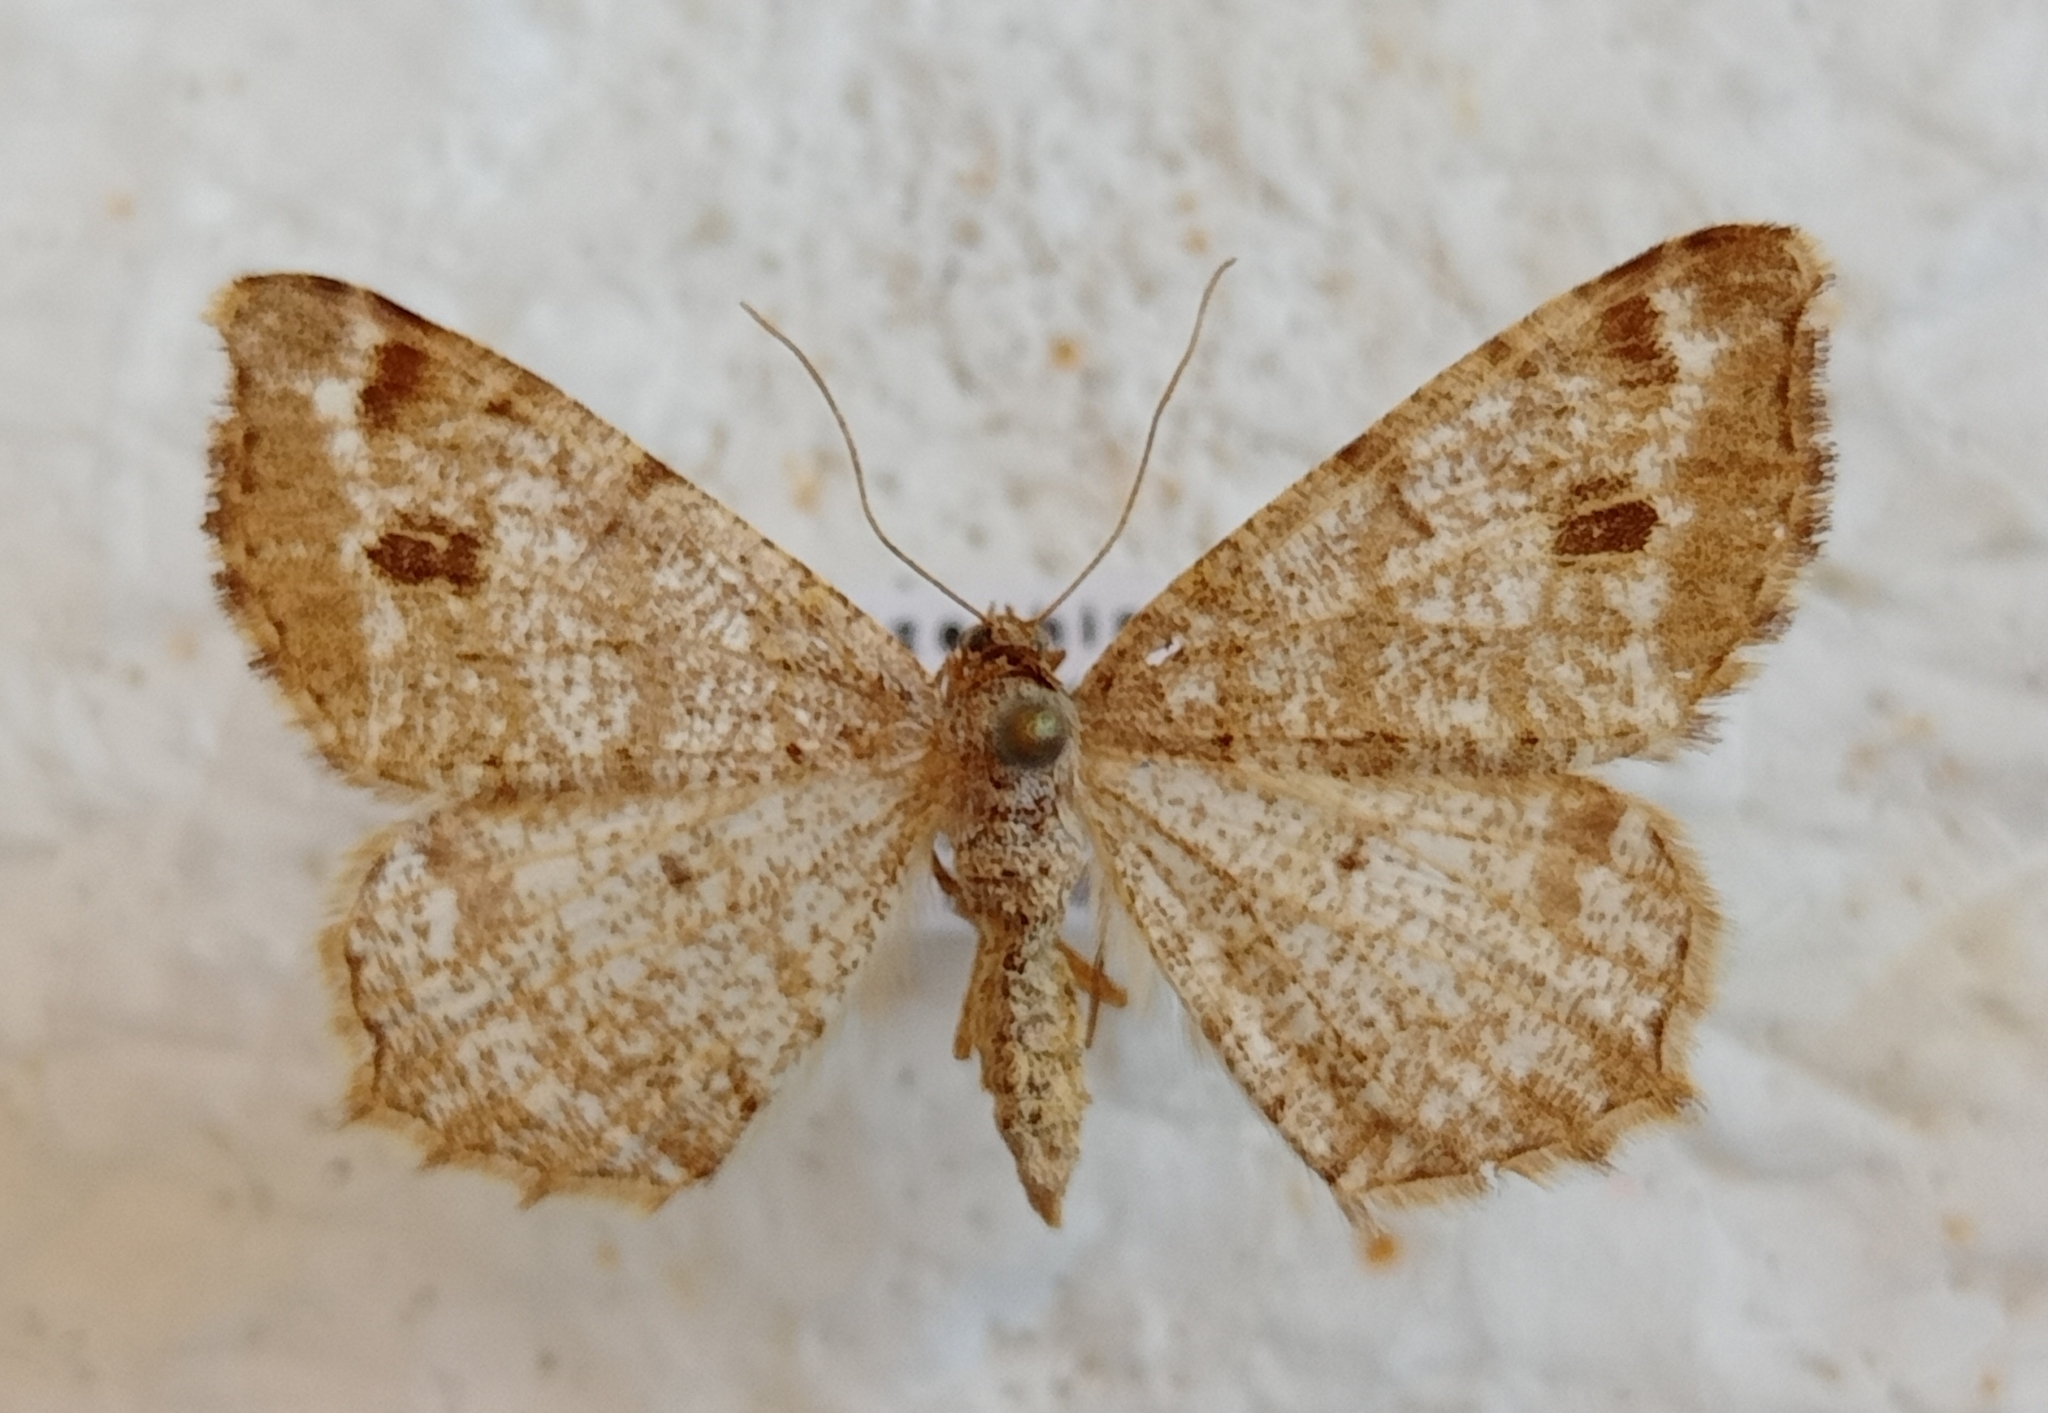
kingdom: Animalia
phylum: Arthropoda
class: Insecta
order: Lepidoptera
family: Geometridae
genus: Macaria
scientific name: Macaria signaria
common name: Dusky peacock
